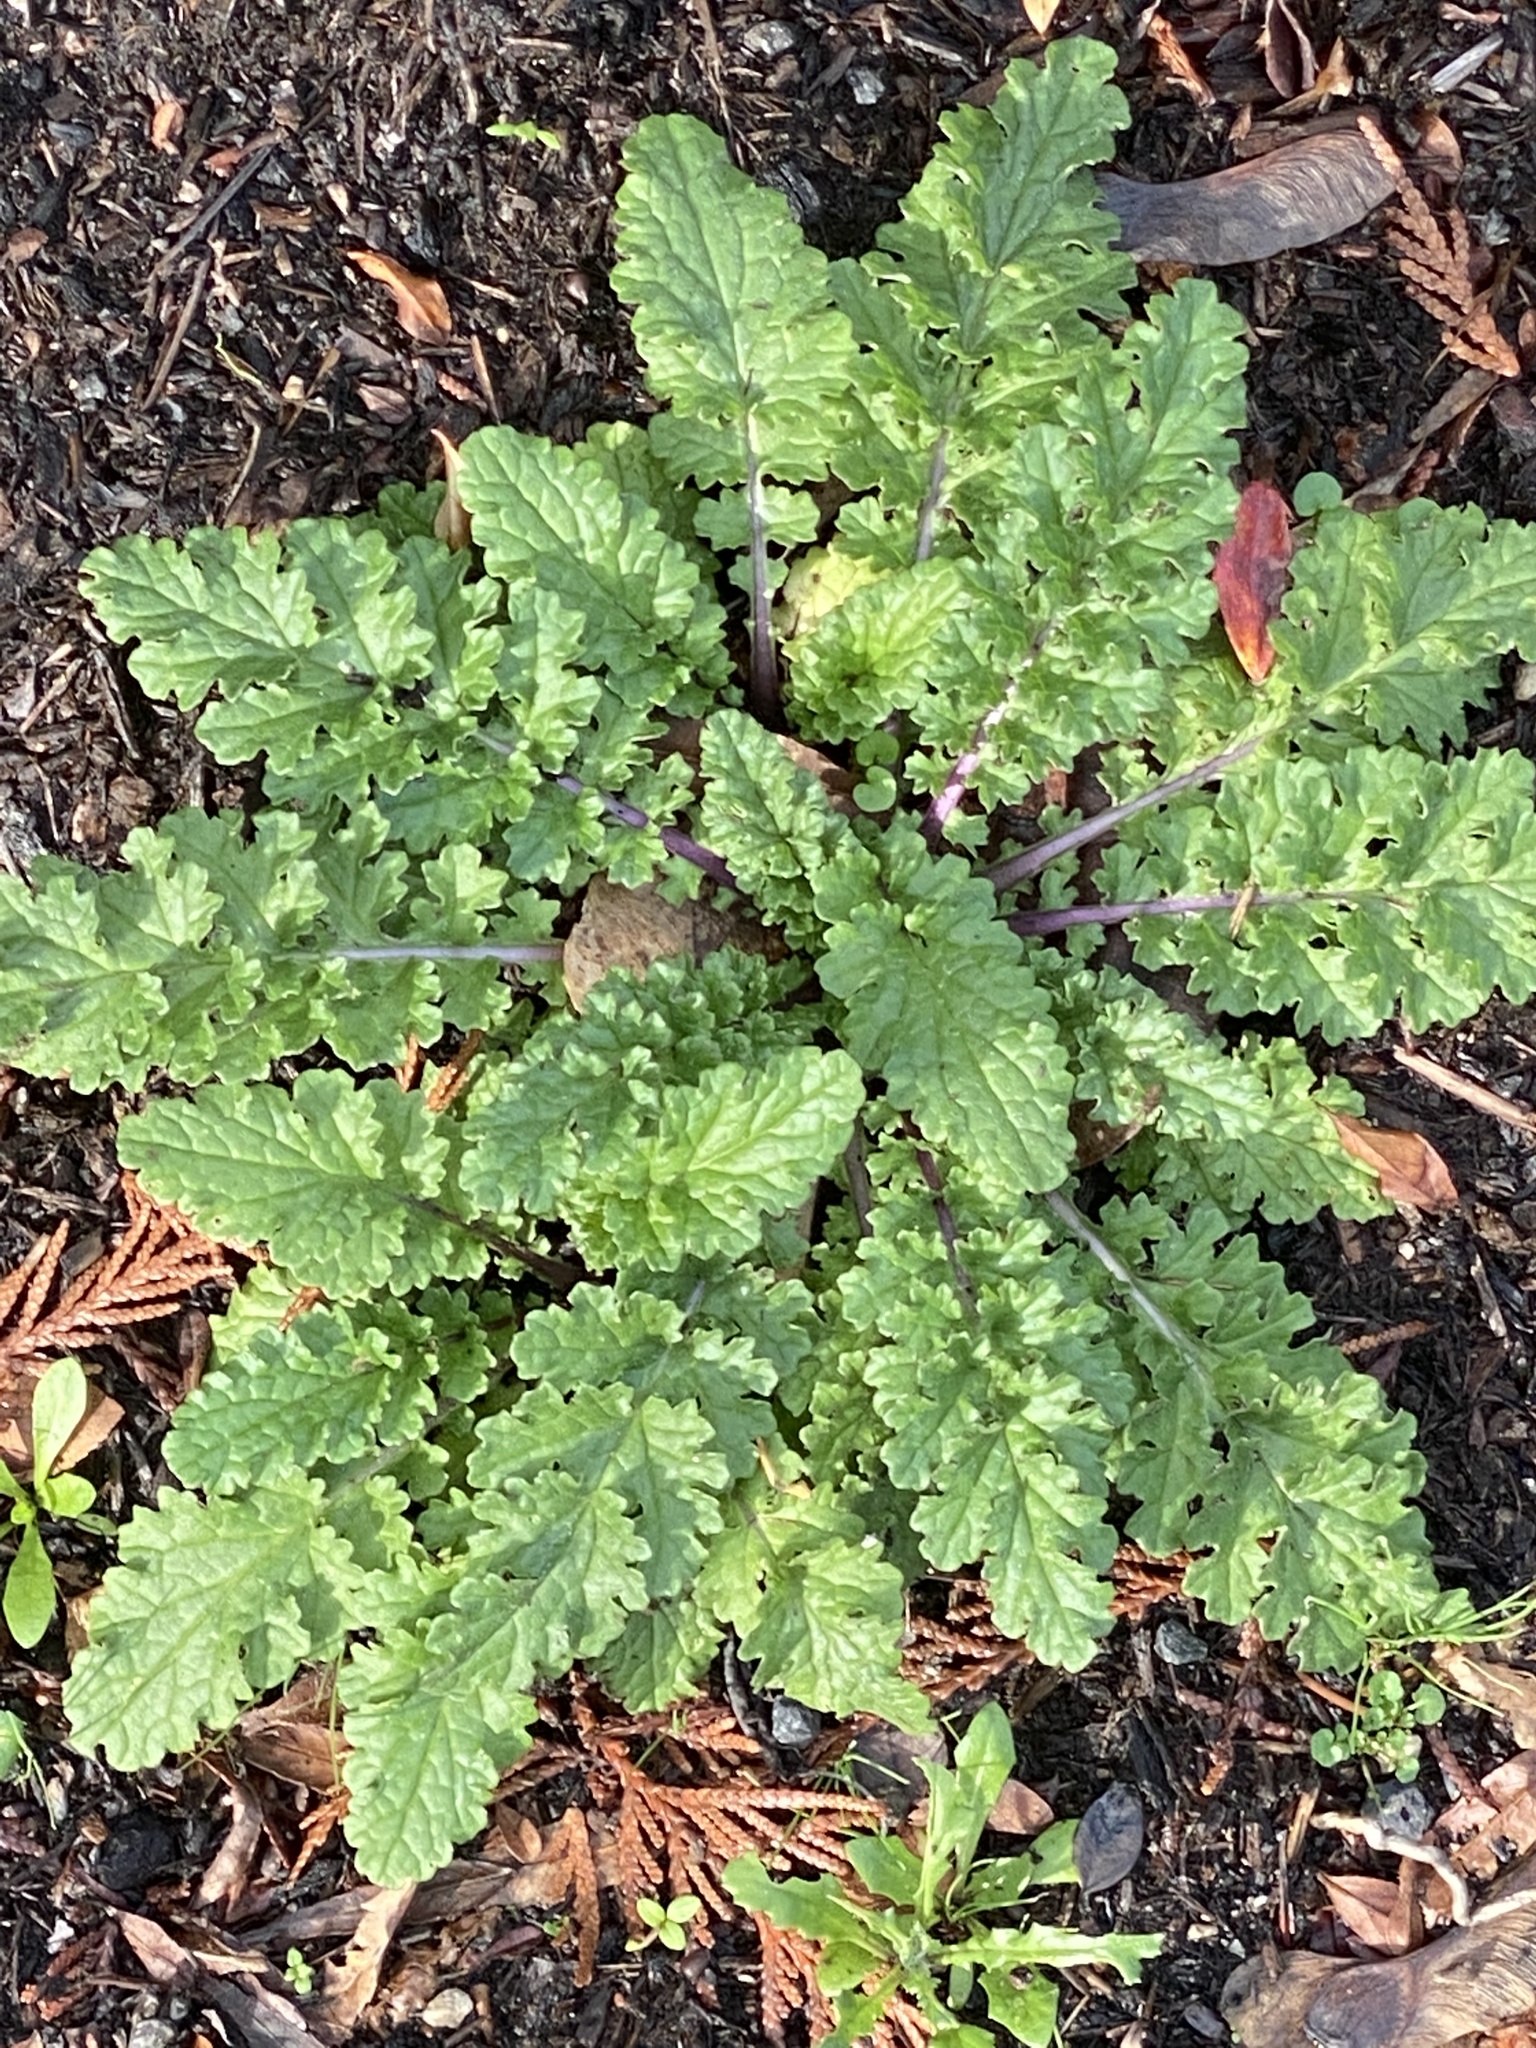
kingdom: Plantae
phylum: Tracheophyta
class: Magnoliopsida
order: Asterales
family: Asteraceae
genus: Jacobaea
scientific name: Jacobaea vulgaris
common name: Stinking willie
